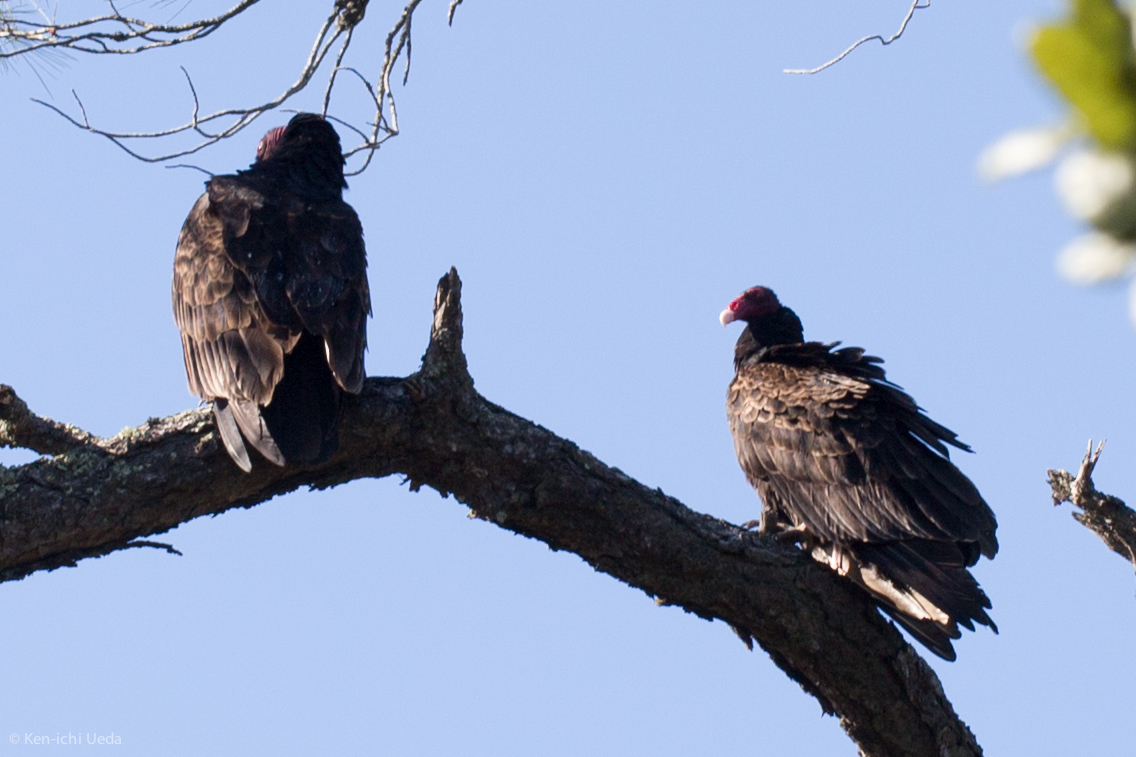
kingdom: Animalia
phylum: Chordata
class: Aves
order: Accipitriformes
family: Cathartidae
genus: Cathartes
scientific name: Cathartes aura
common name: Turkey vulture
